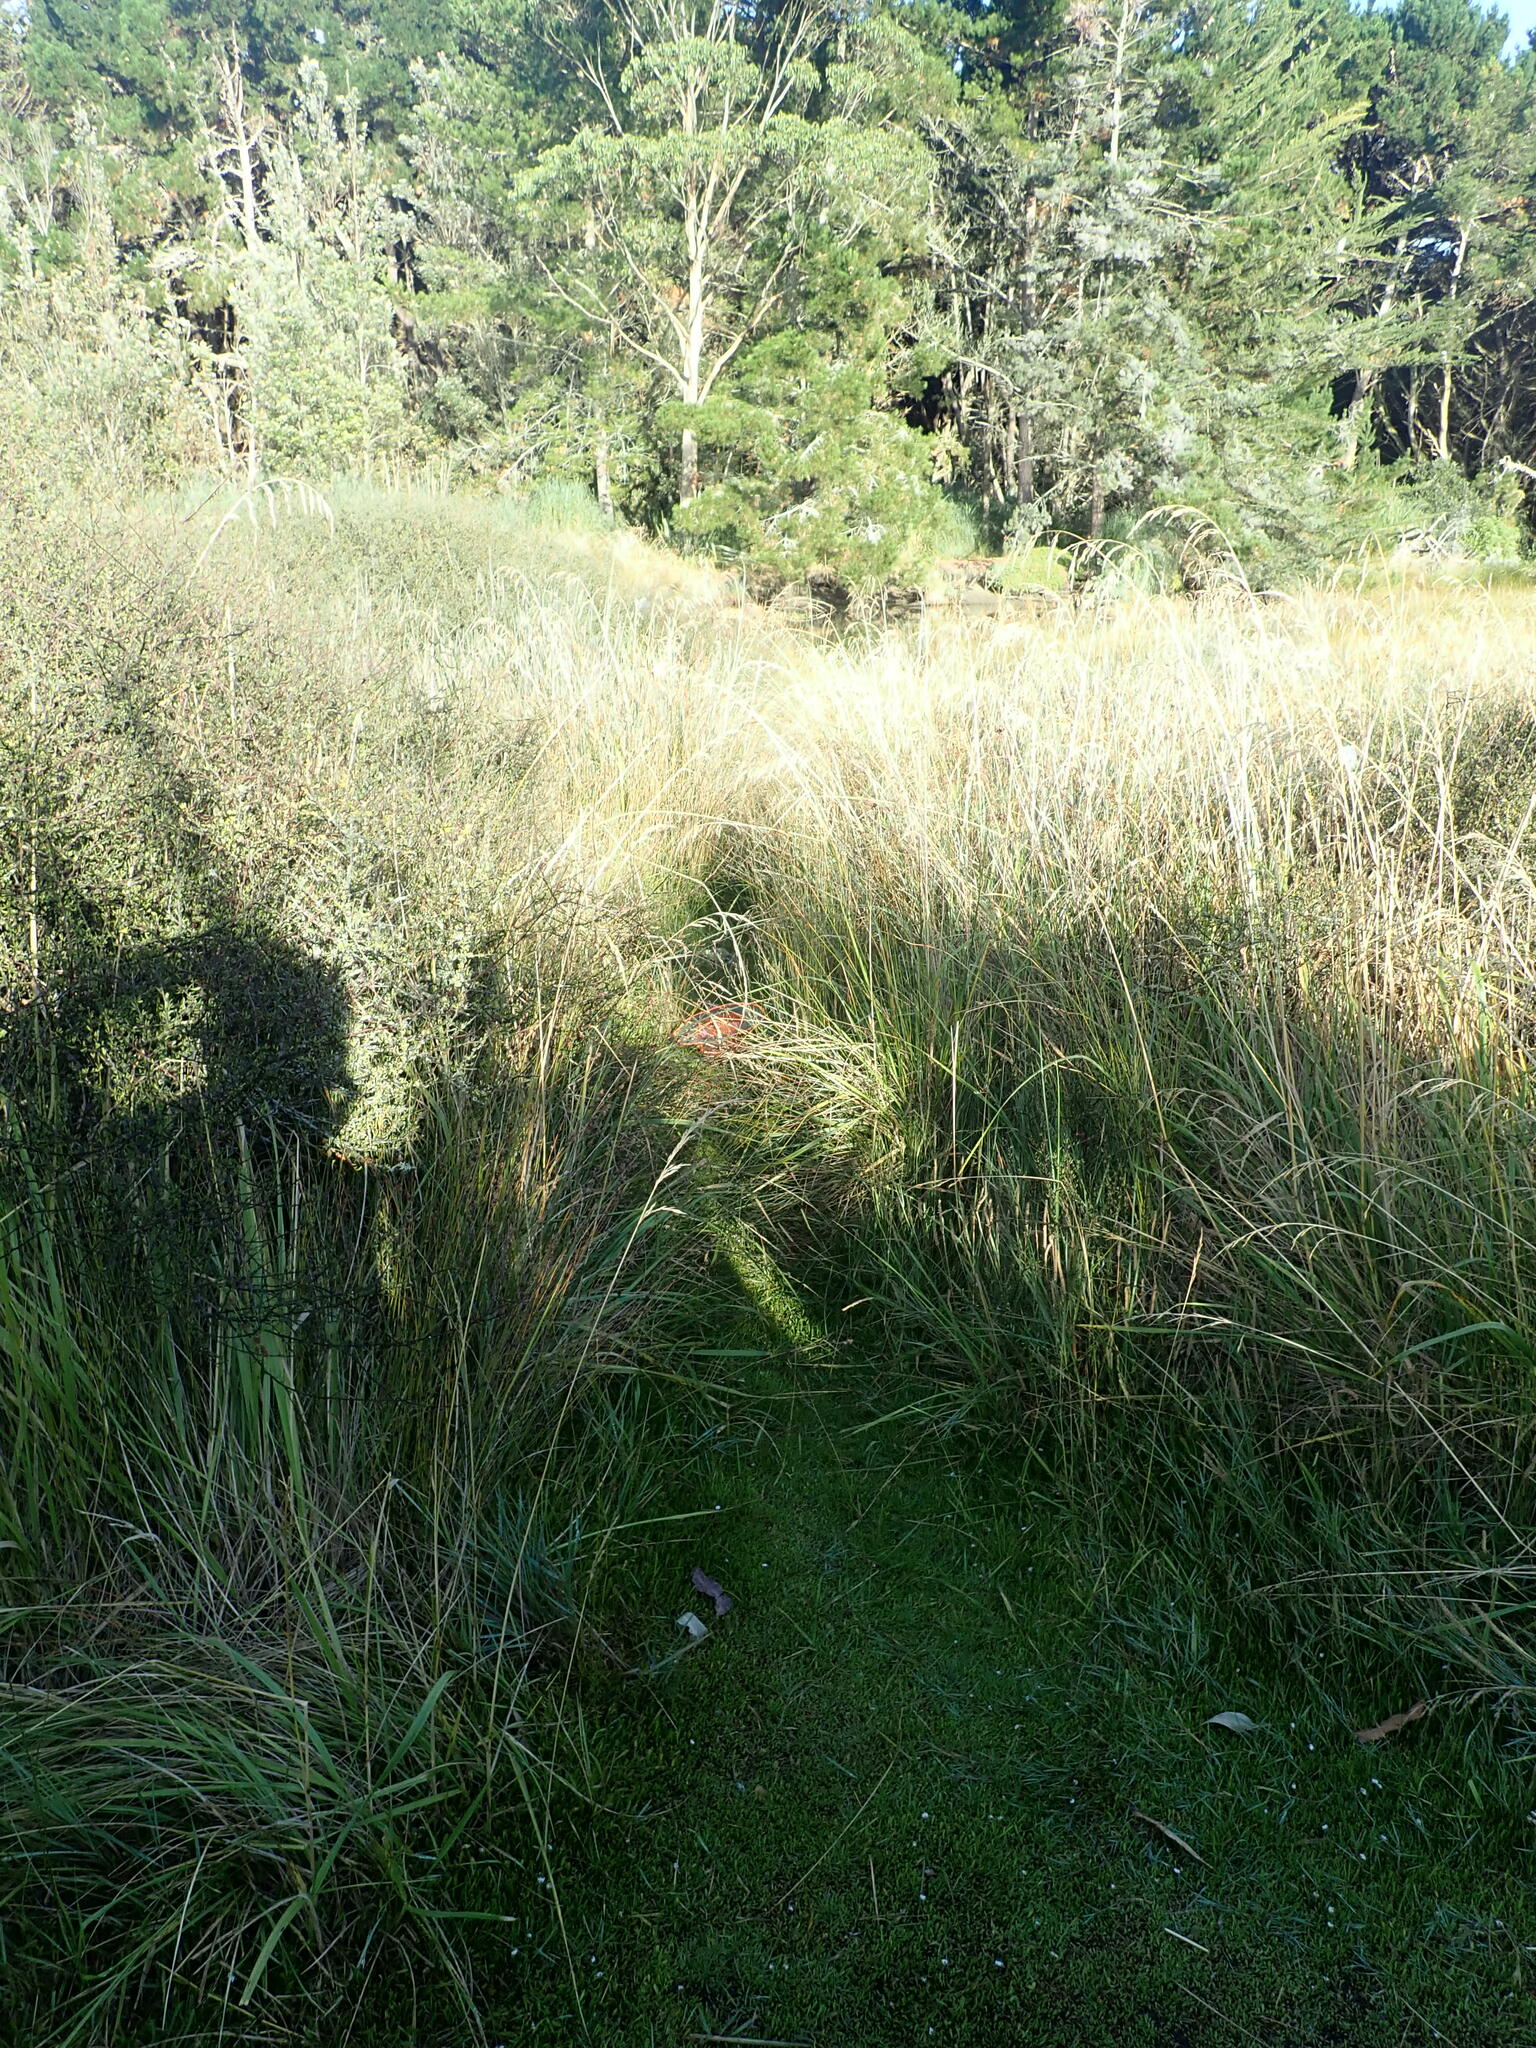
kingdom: Plantae
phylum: Tracheophyta
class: Magnoliopsida
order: Asterales
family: Goodeniaceae
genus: Goodenia
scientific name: Goodenia radicans
